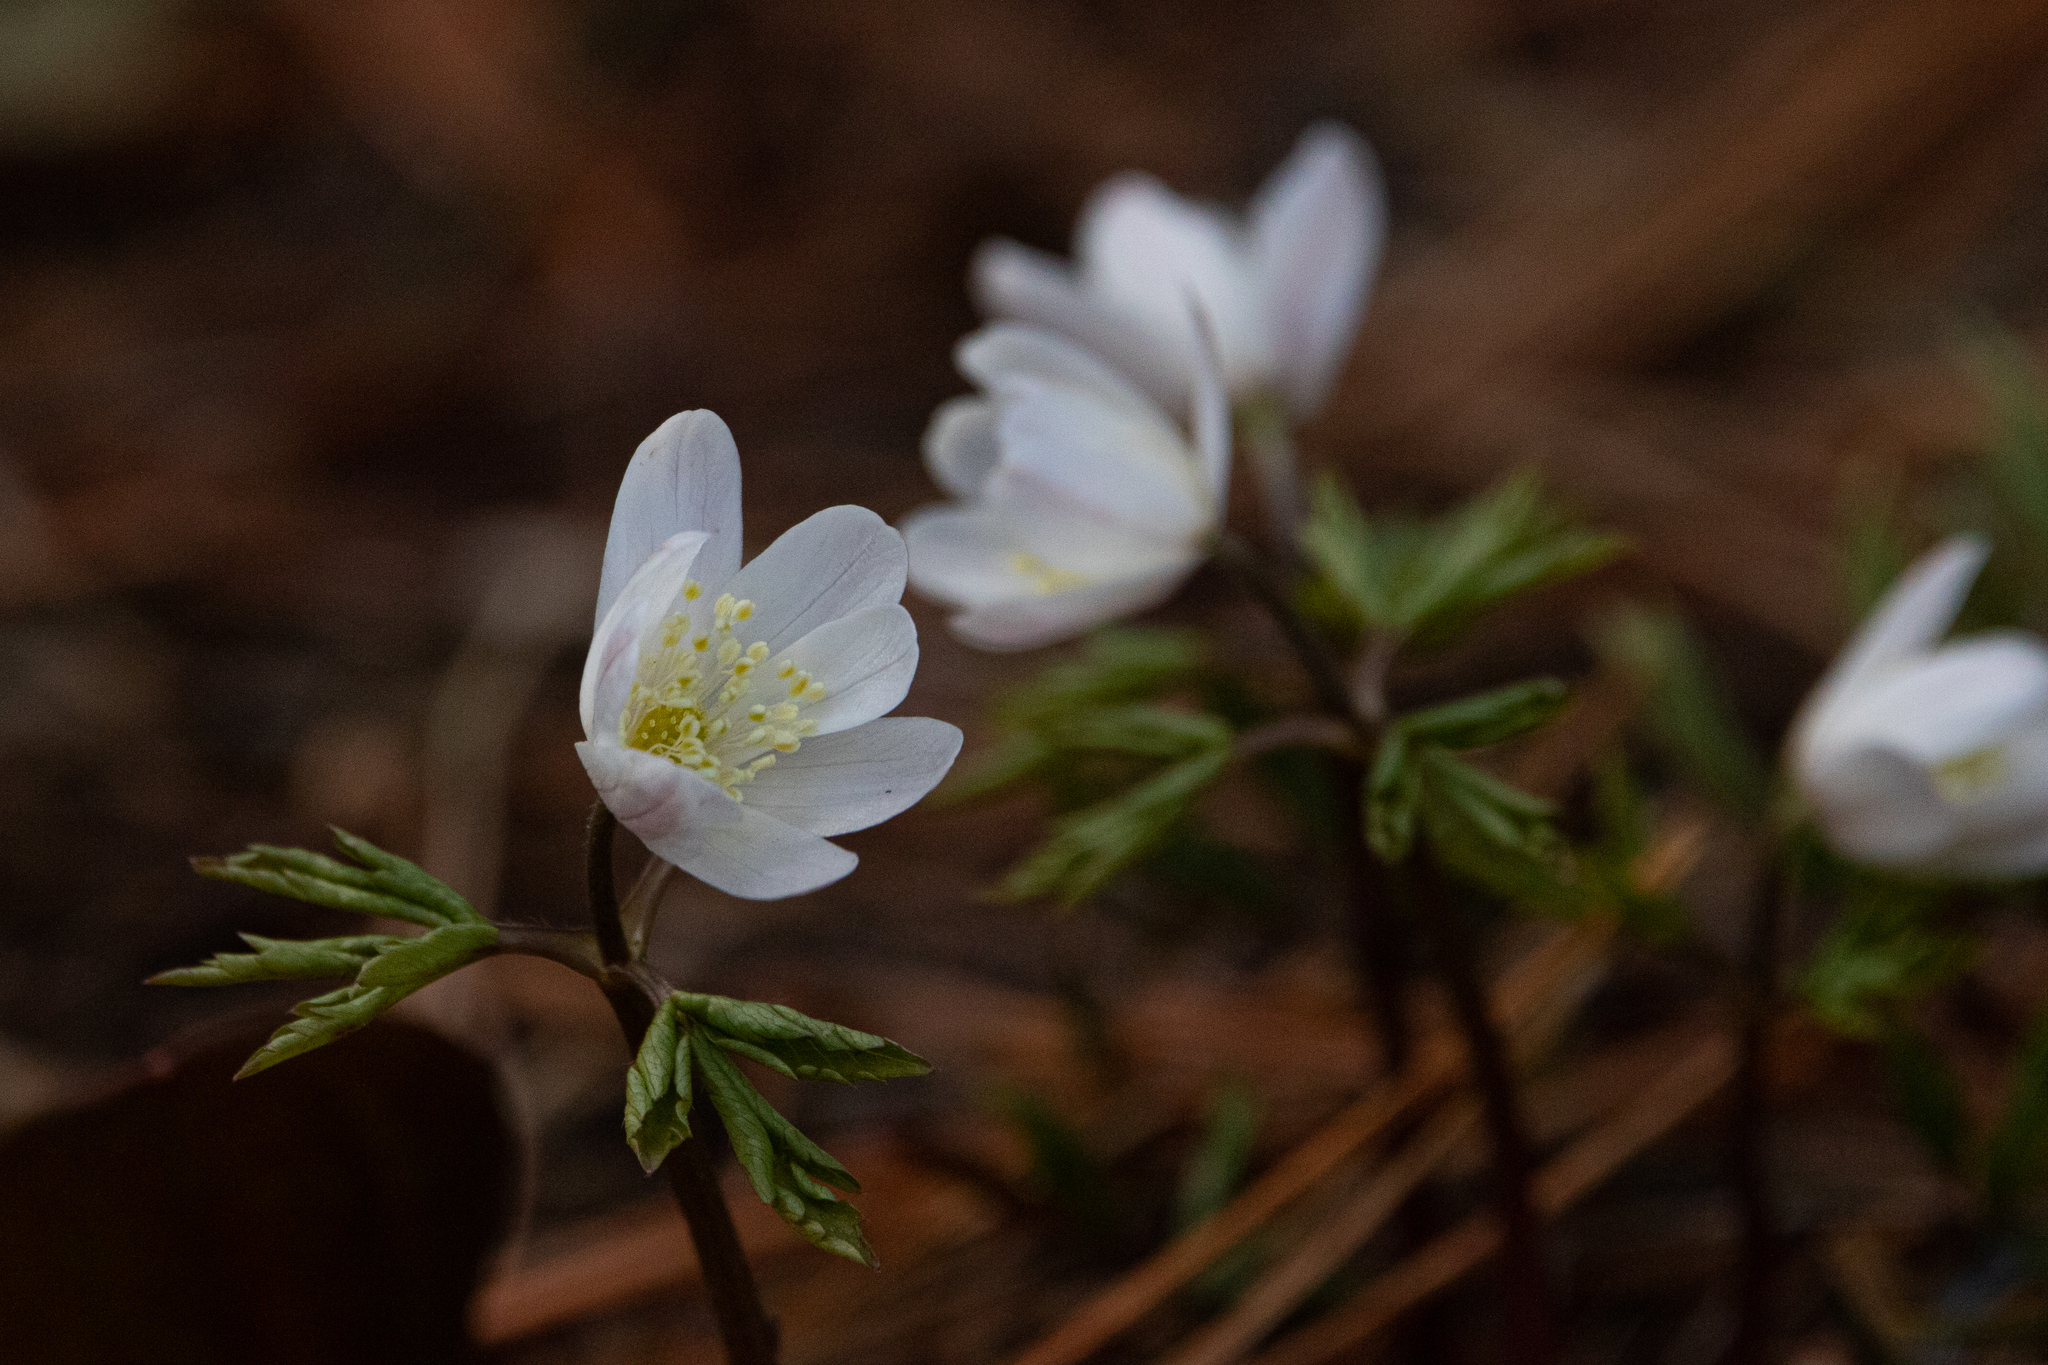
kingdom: Plantae
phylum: Tracheophyta
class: Magnoliopsida
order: Ranunculales
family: Ranunculaceae
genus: Anemone
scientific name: Anemone altaica
